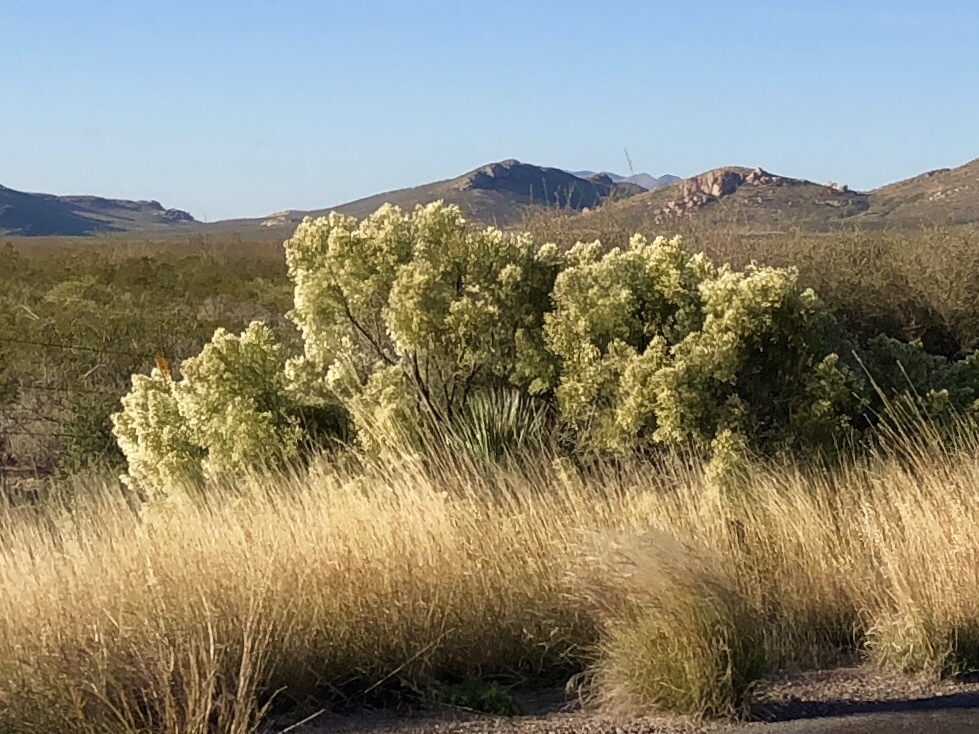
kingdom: Plantae
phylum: Tracheophyta
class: Magnoliopsida
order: Asterales
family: Asteraceae
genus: Baccharis
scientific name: Baccharis sarothroides
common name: Desert-broom
